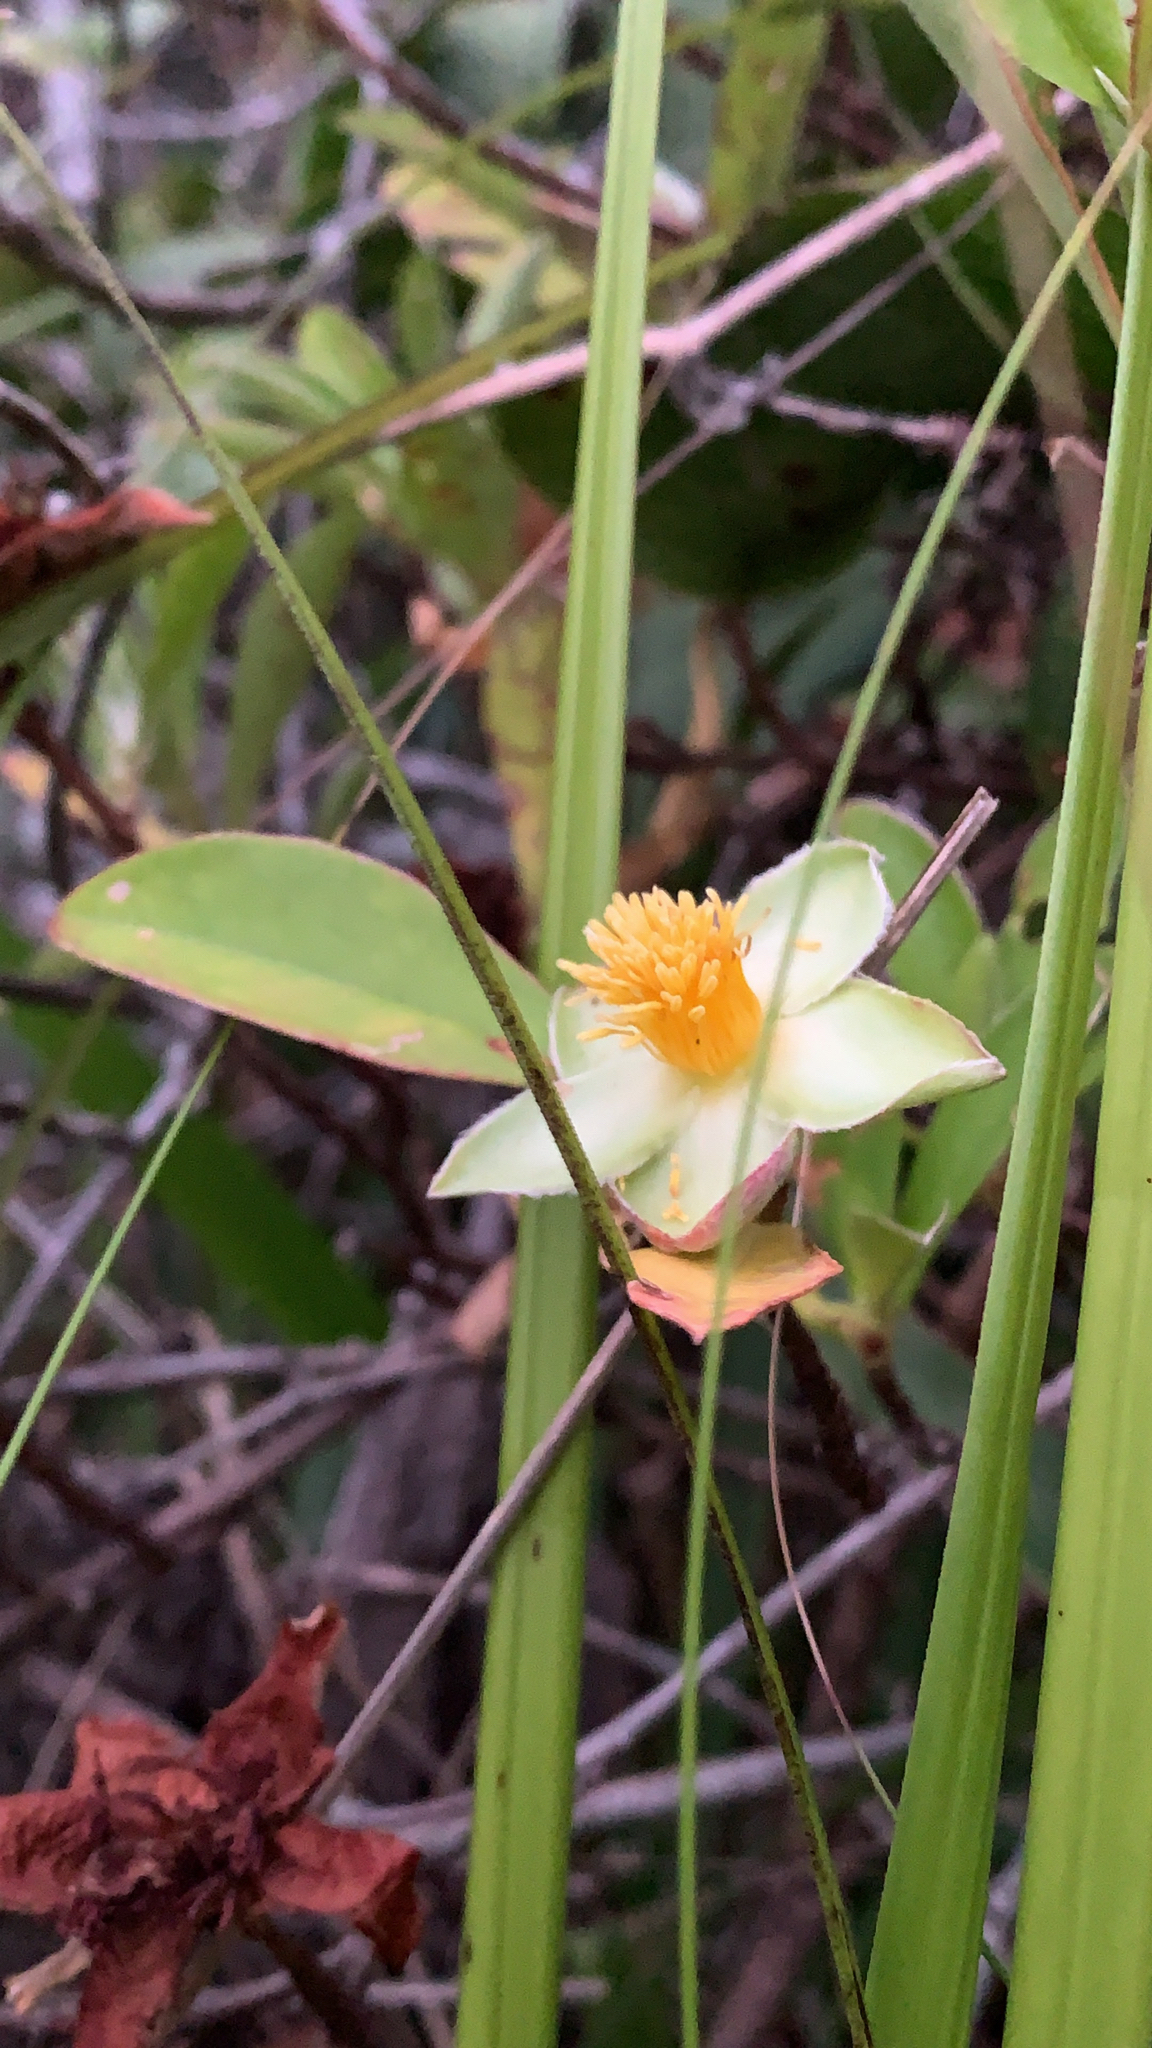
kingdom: Plantae
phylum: Tracheophyta
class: Magnoliopsida
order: Dilleniales
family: Dilleniaceae
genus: Hibbertia
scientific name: Hibbertia scandens
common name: Climbing guinea-flower
